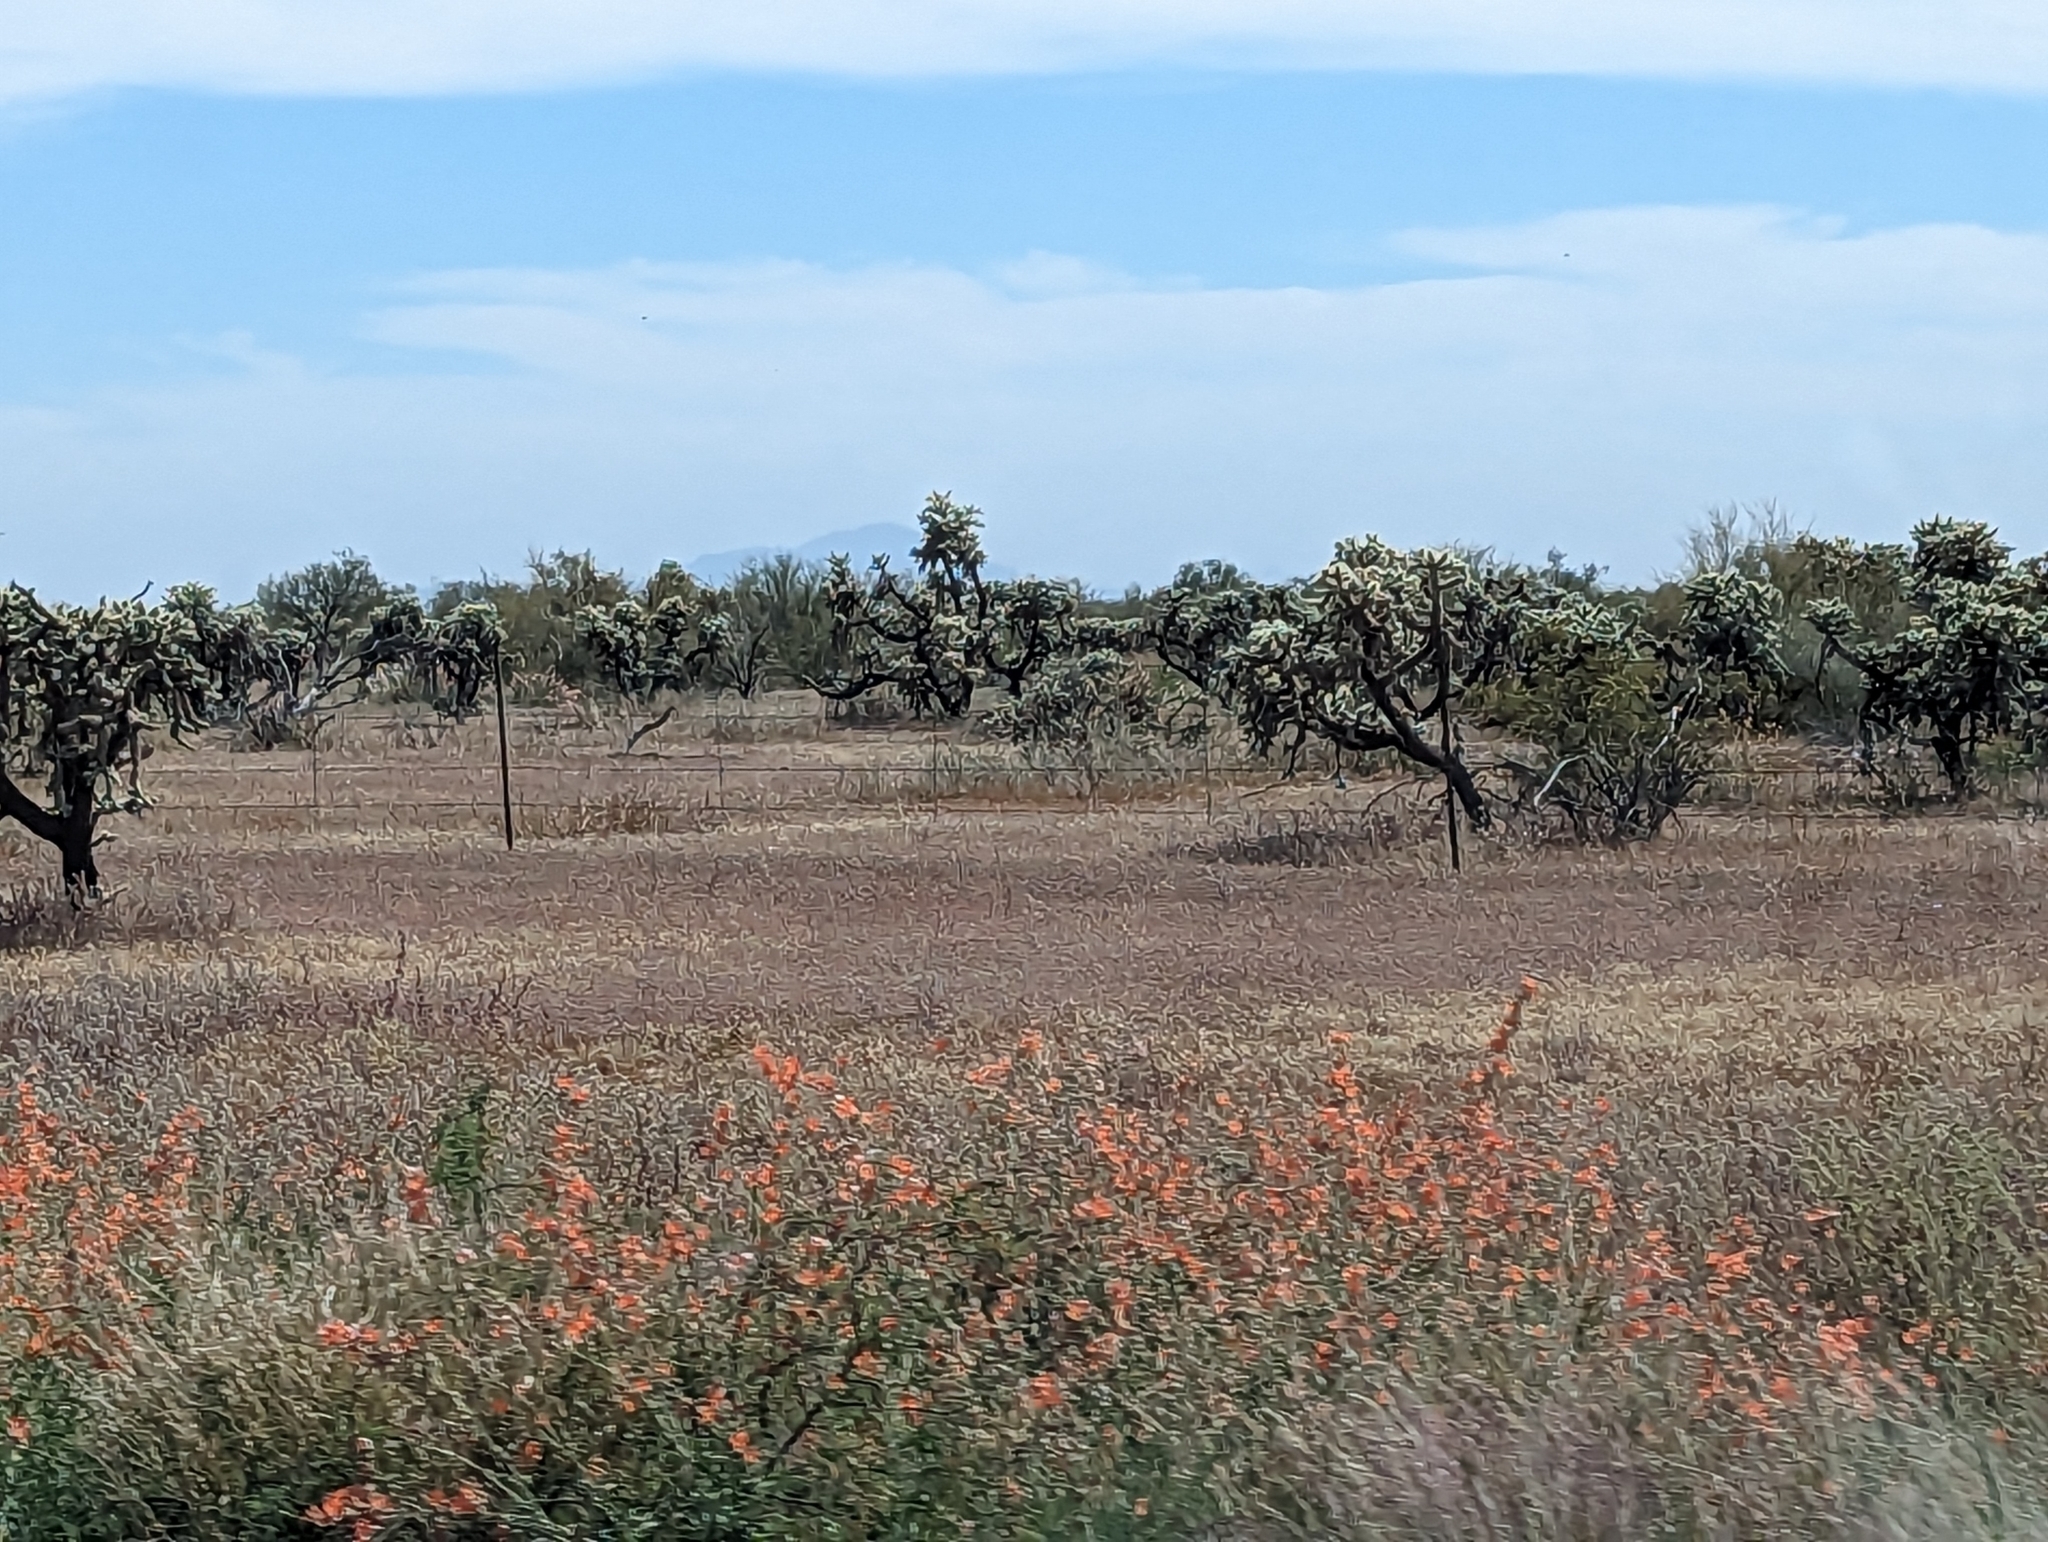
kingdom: Plantae
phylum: Tracheophyta
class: Magnoliopsida
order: Caryophyllales
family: Cactaceae
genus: Cylindropuntia
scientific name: Cylindropuntia fosbergii
